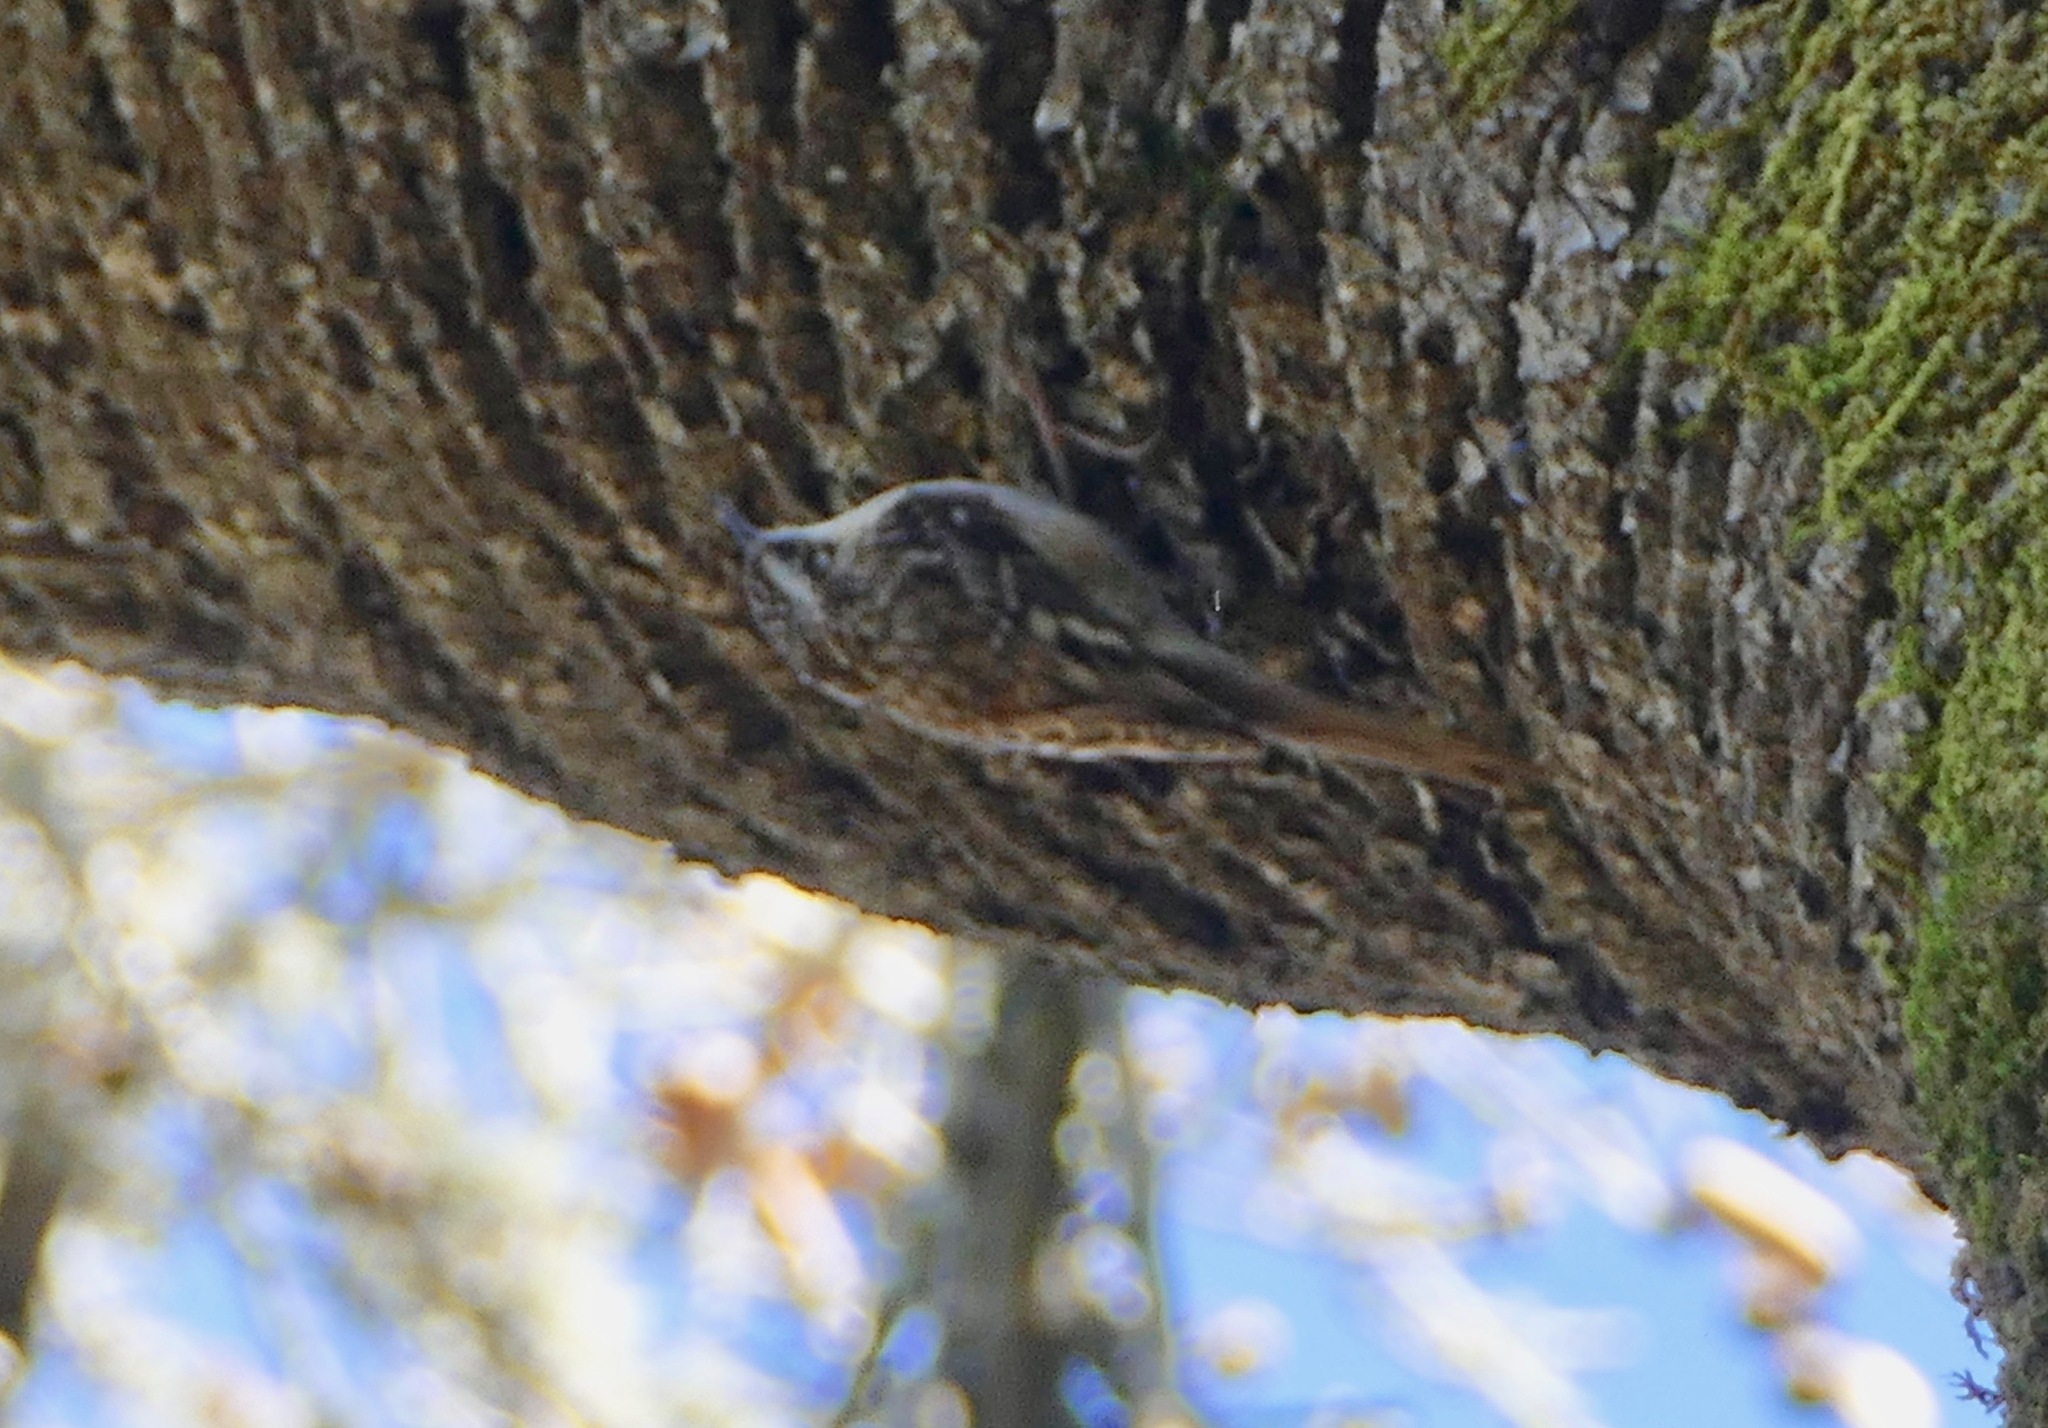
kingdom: Animalia
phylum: Chordata
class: Aves
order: Passeriformes
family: Certhiidae
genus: Certhia
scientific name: Certhia americana
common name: Brown creeper
